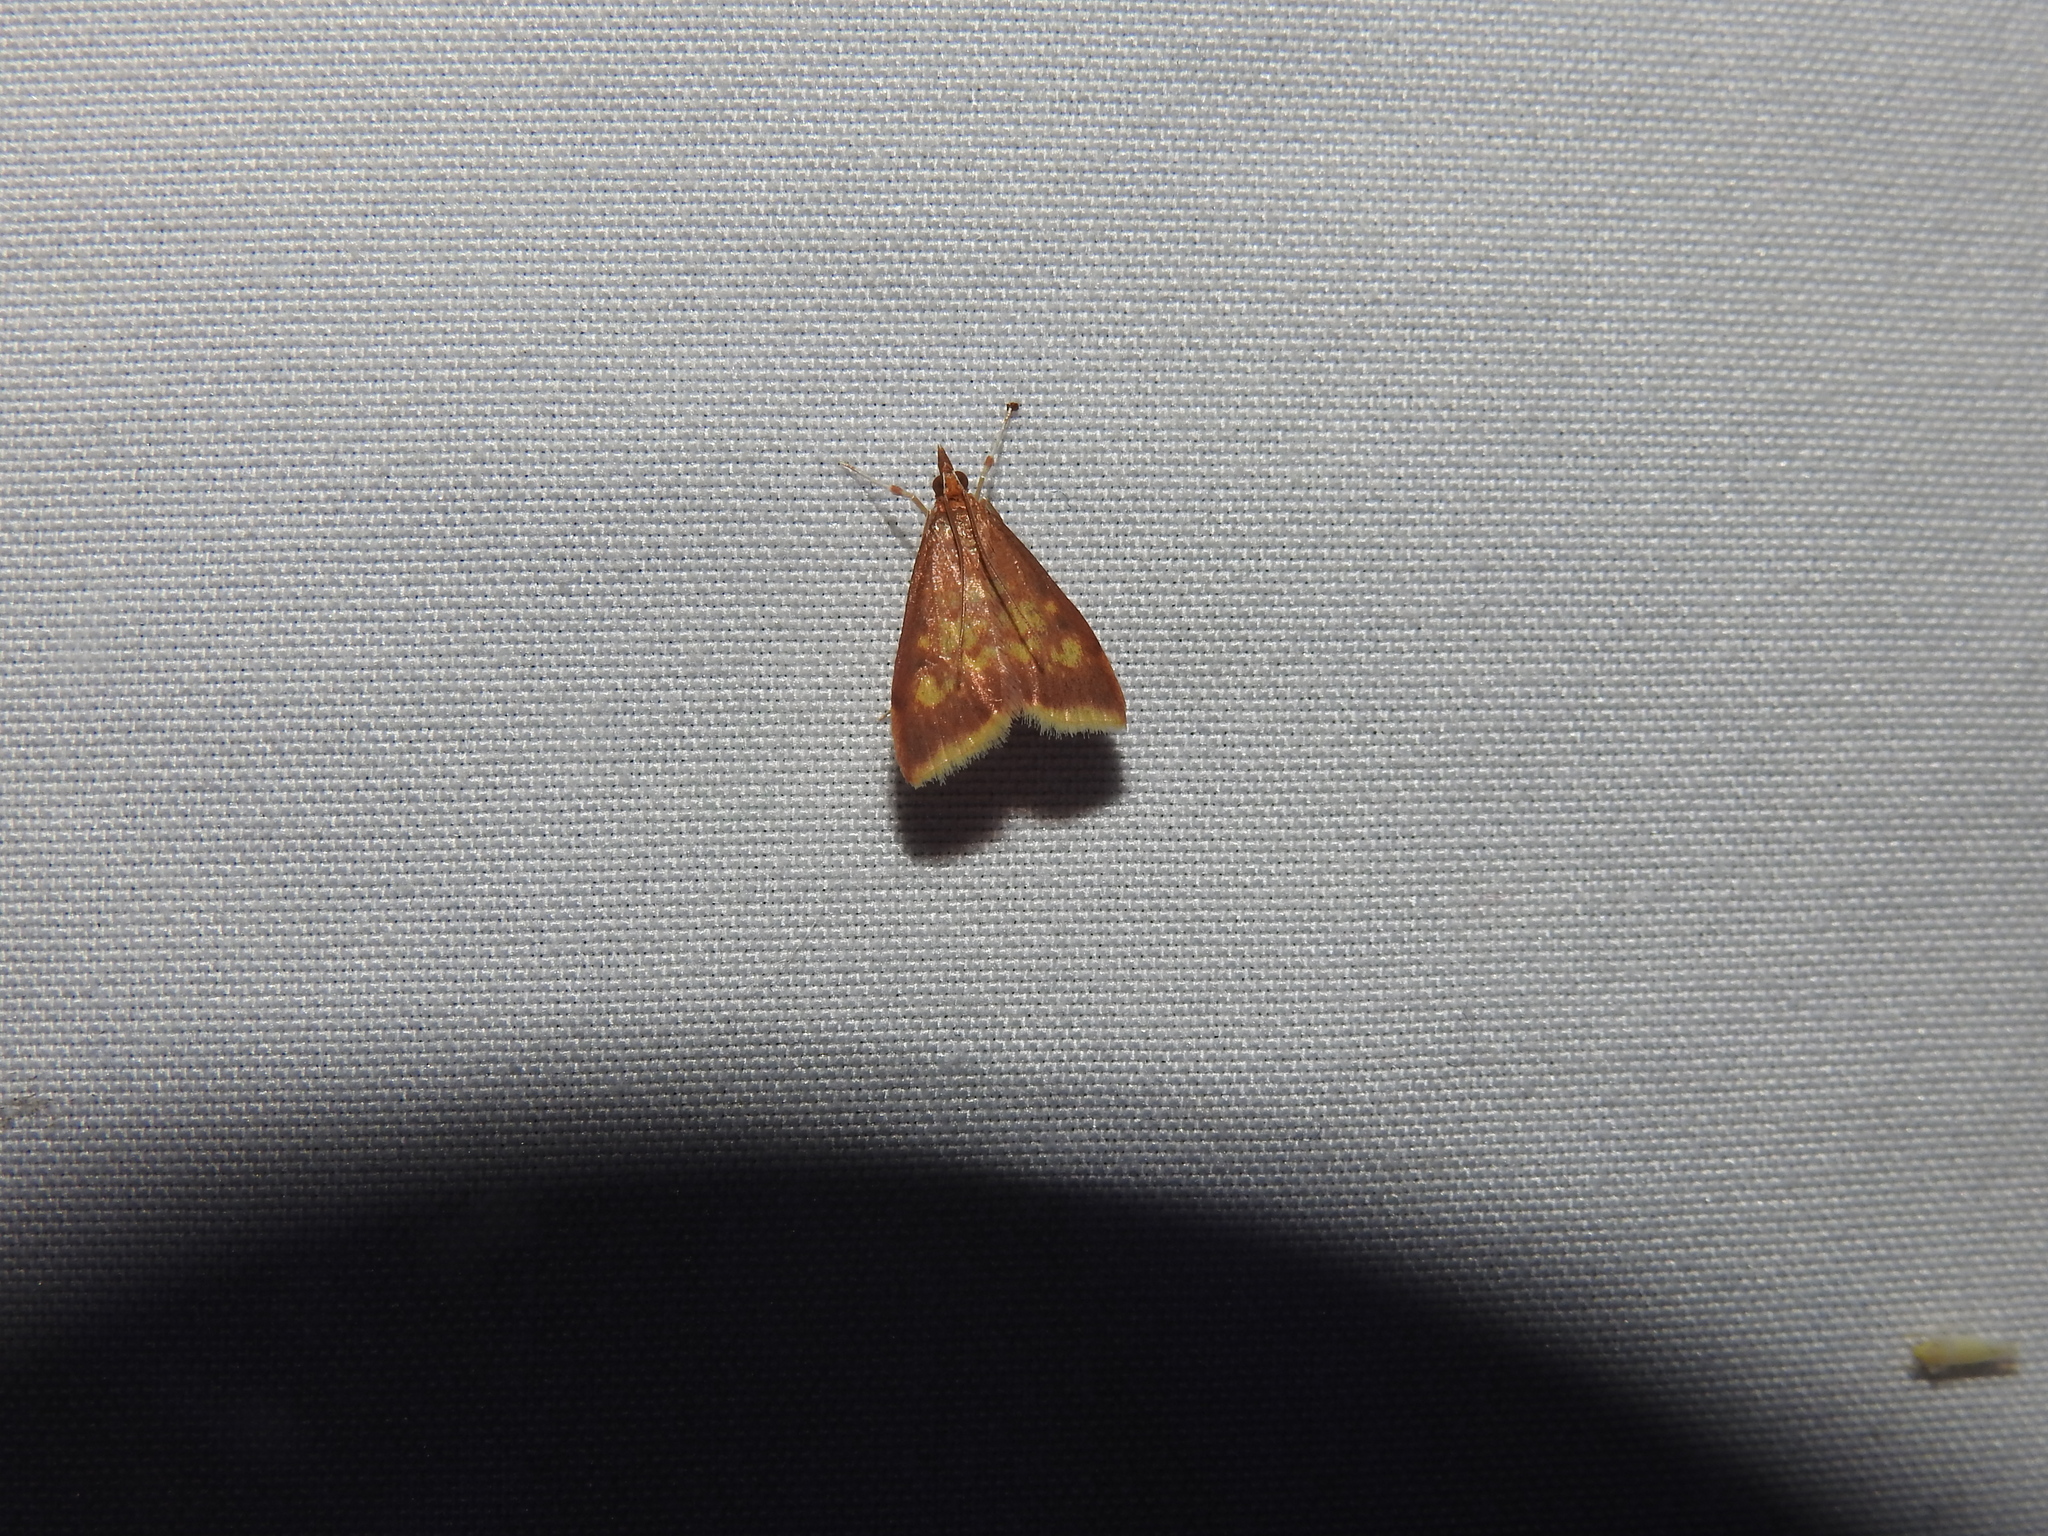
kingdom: Animalia
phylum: Arthropoda
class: Insecta
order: Lepidoptera
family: Crambidae
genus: Pyrausta
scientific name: Pyrausta acrionalis
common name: Mint-loving pyrausta moth
